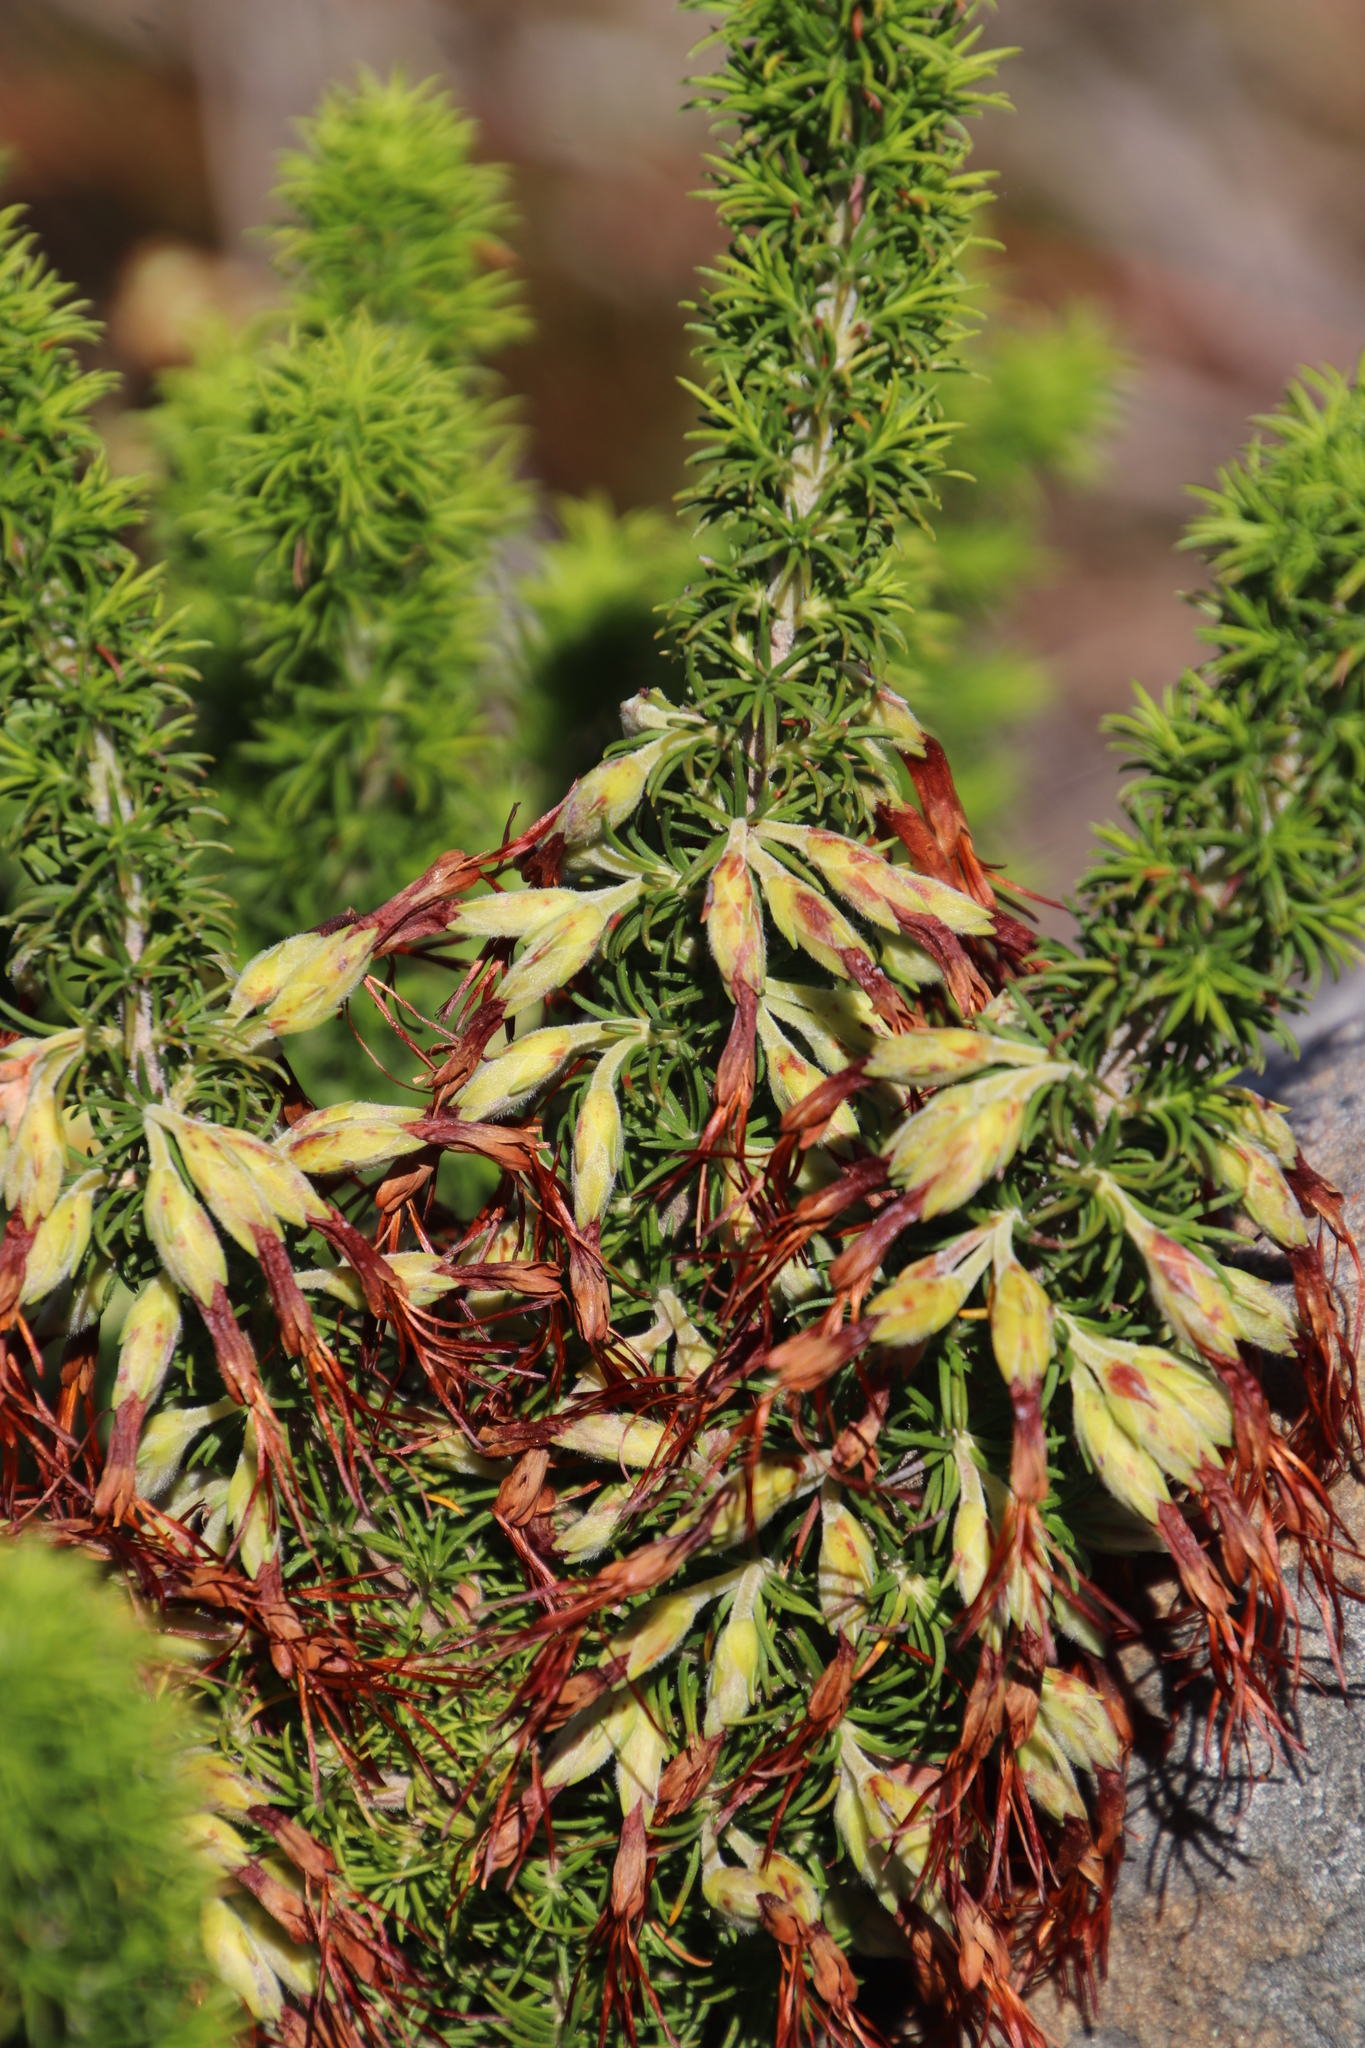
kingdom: Plantae
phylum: Tracheophyta
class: Magnoliopsida
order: Ericales
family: Ericaceae
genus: Erica
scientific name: Erica coccinea
